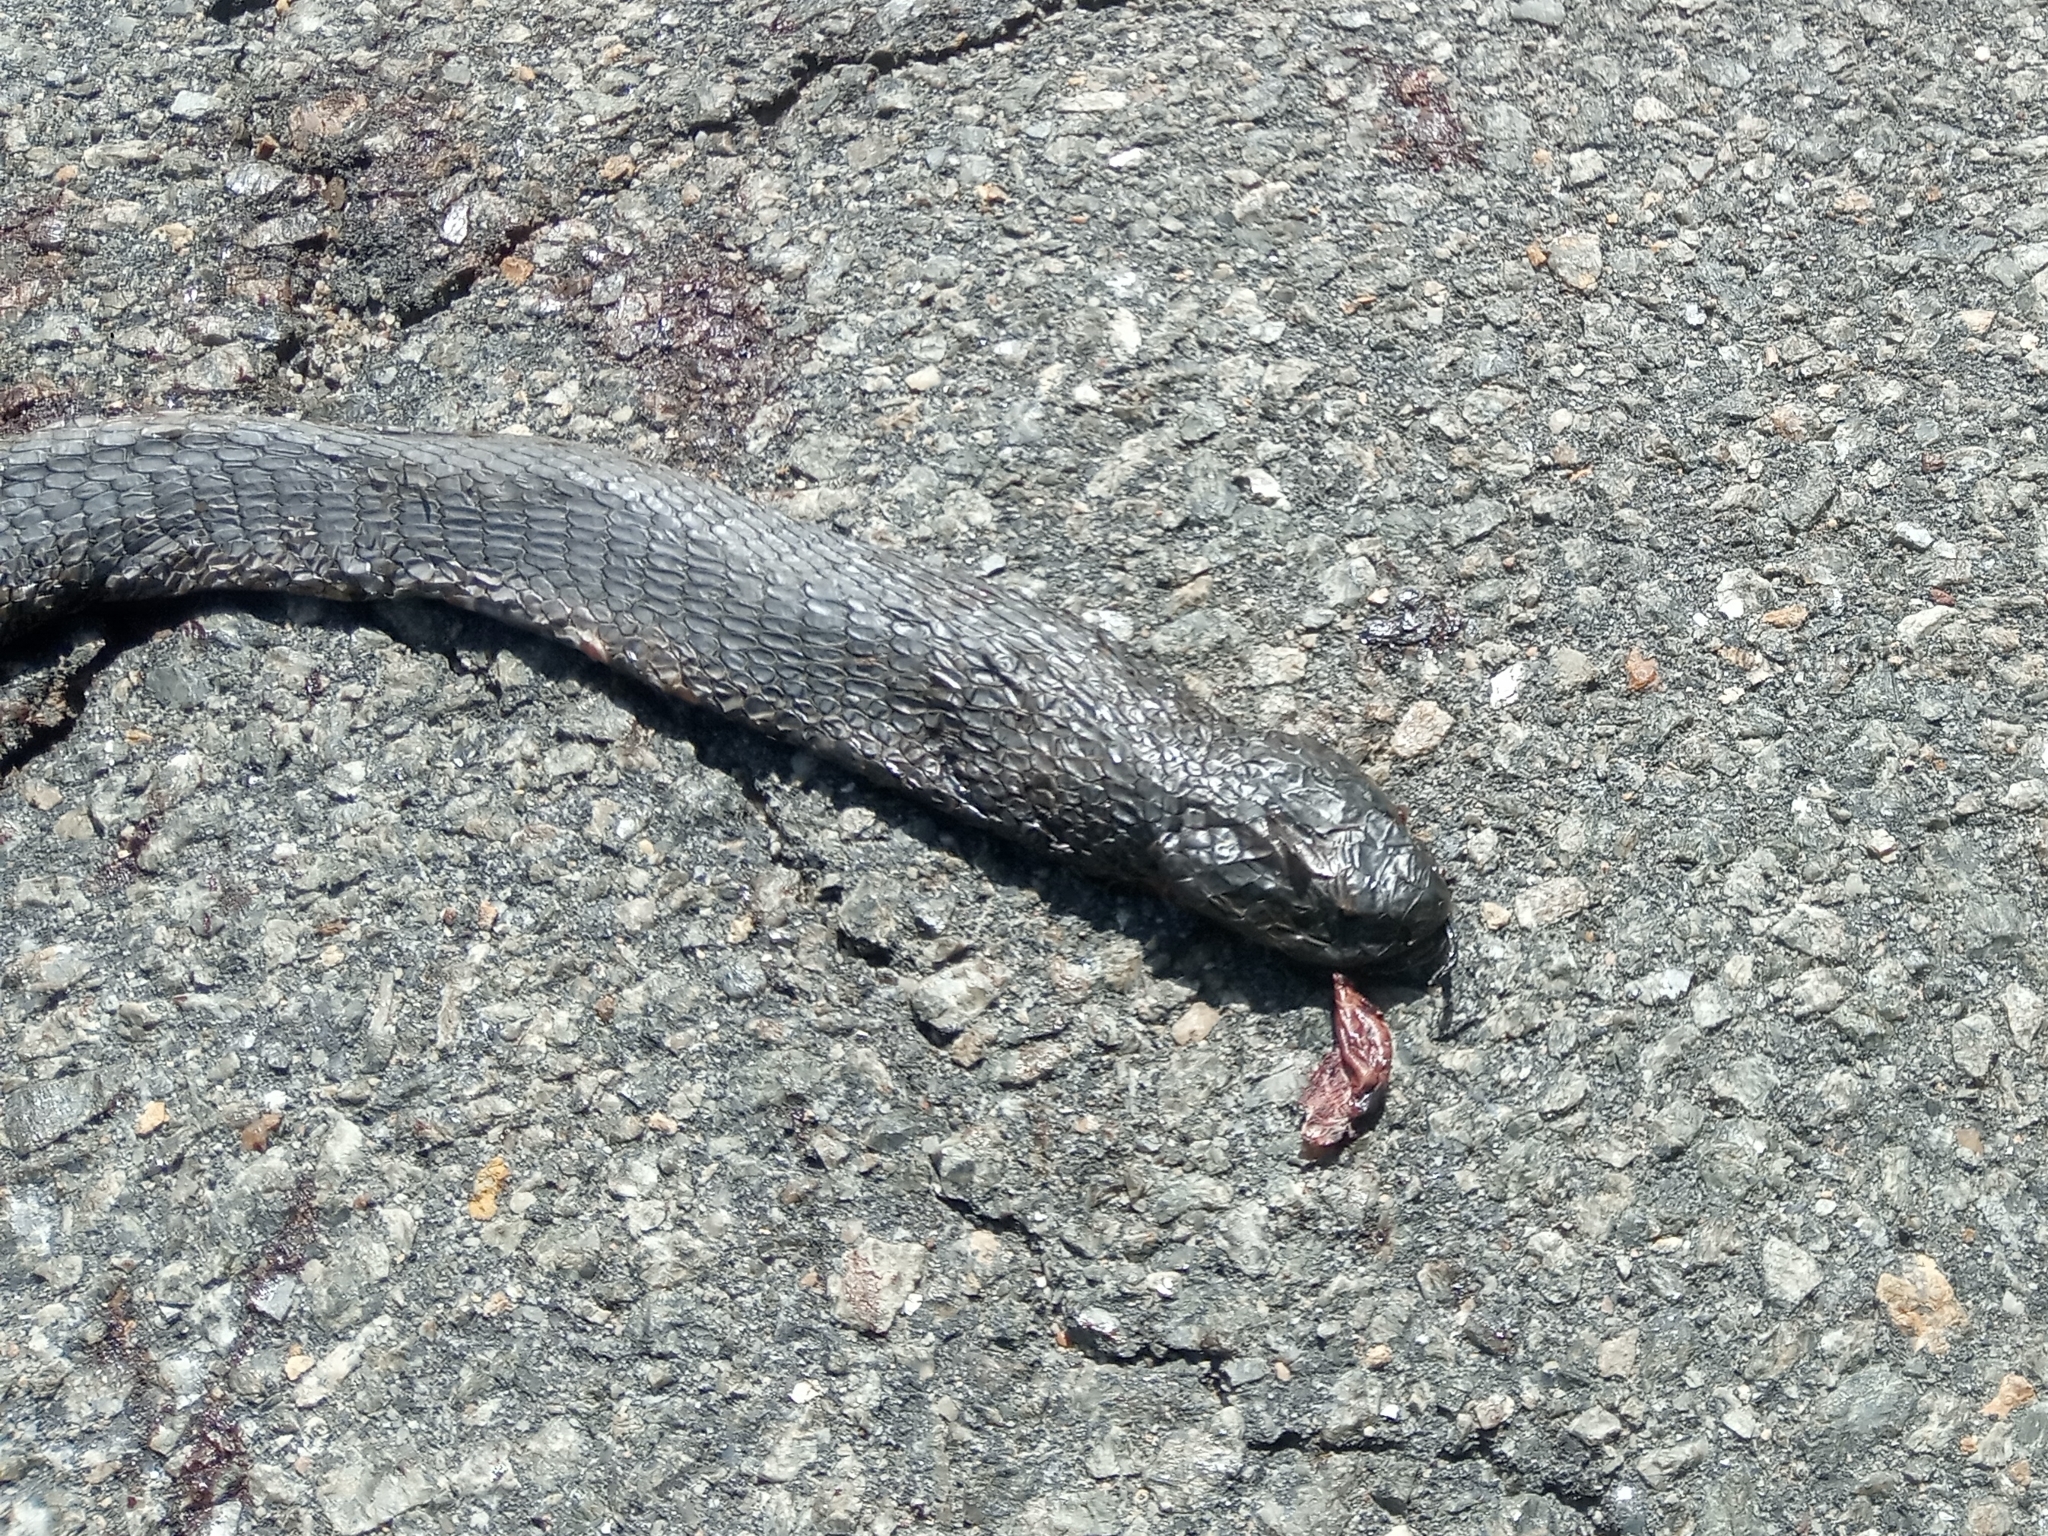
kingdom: Animalia
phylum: Chordata
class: Squamata
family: Elapidae
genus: Naja
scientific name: Naja nigricollis
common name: Black-necked spitting cobra
